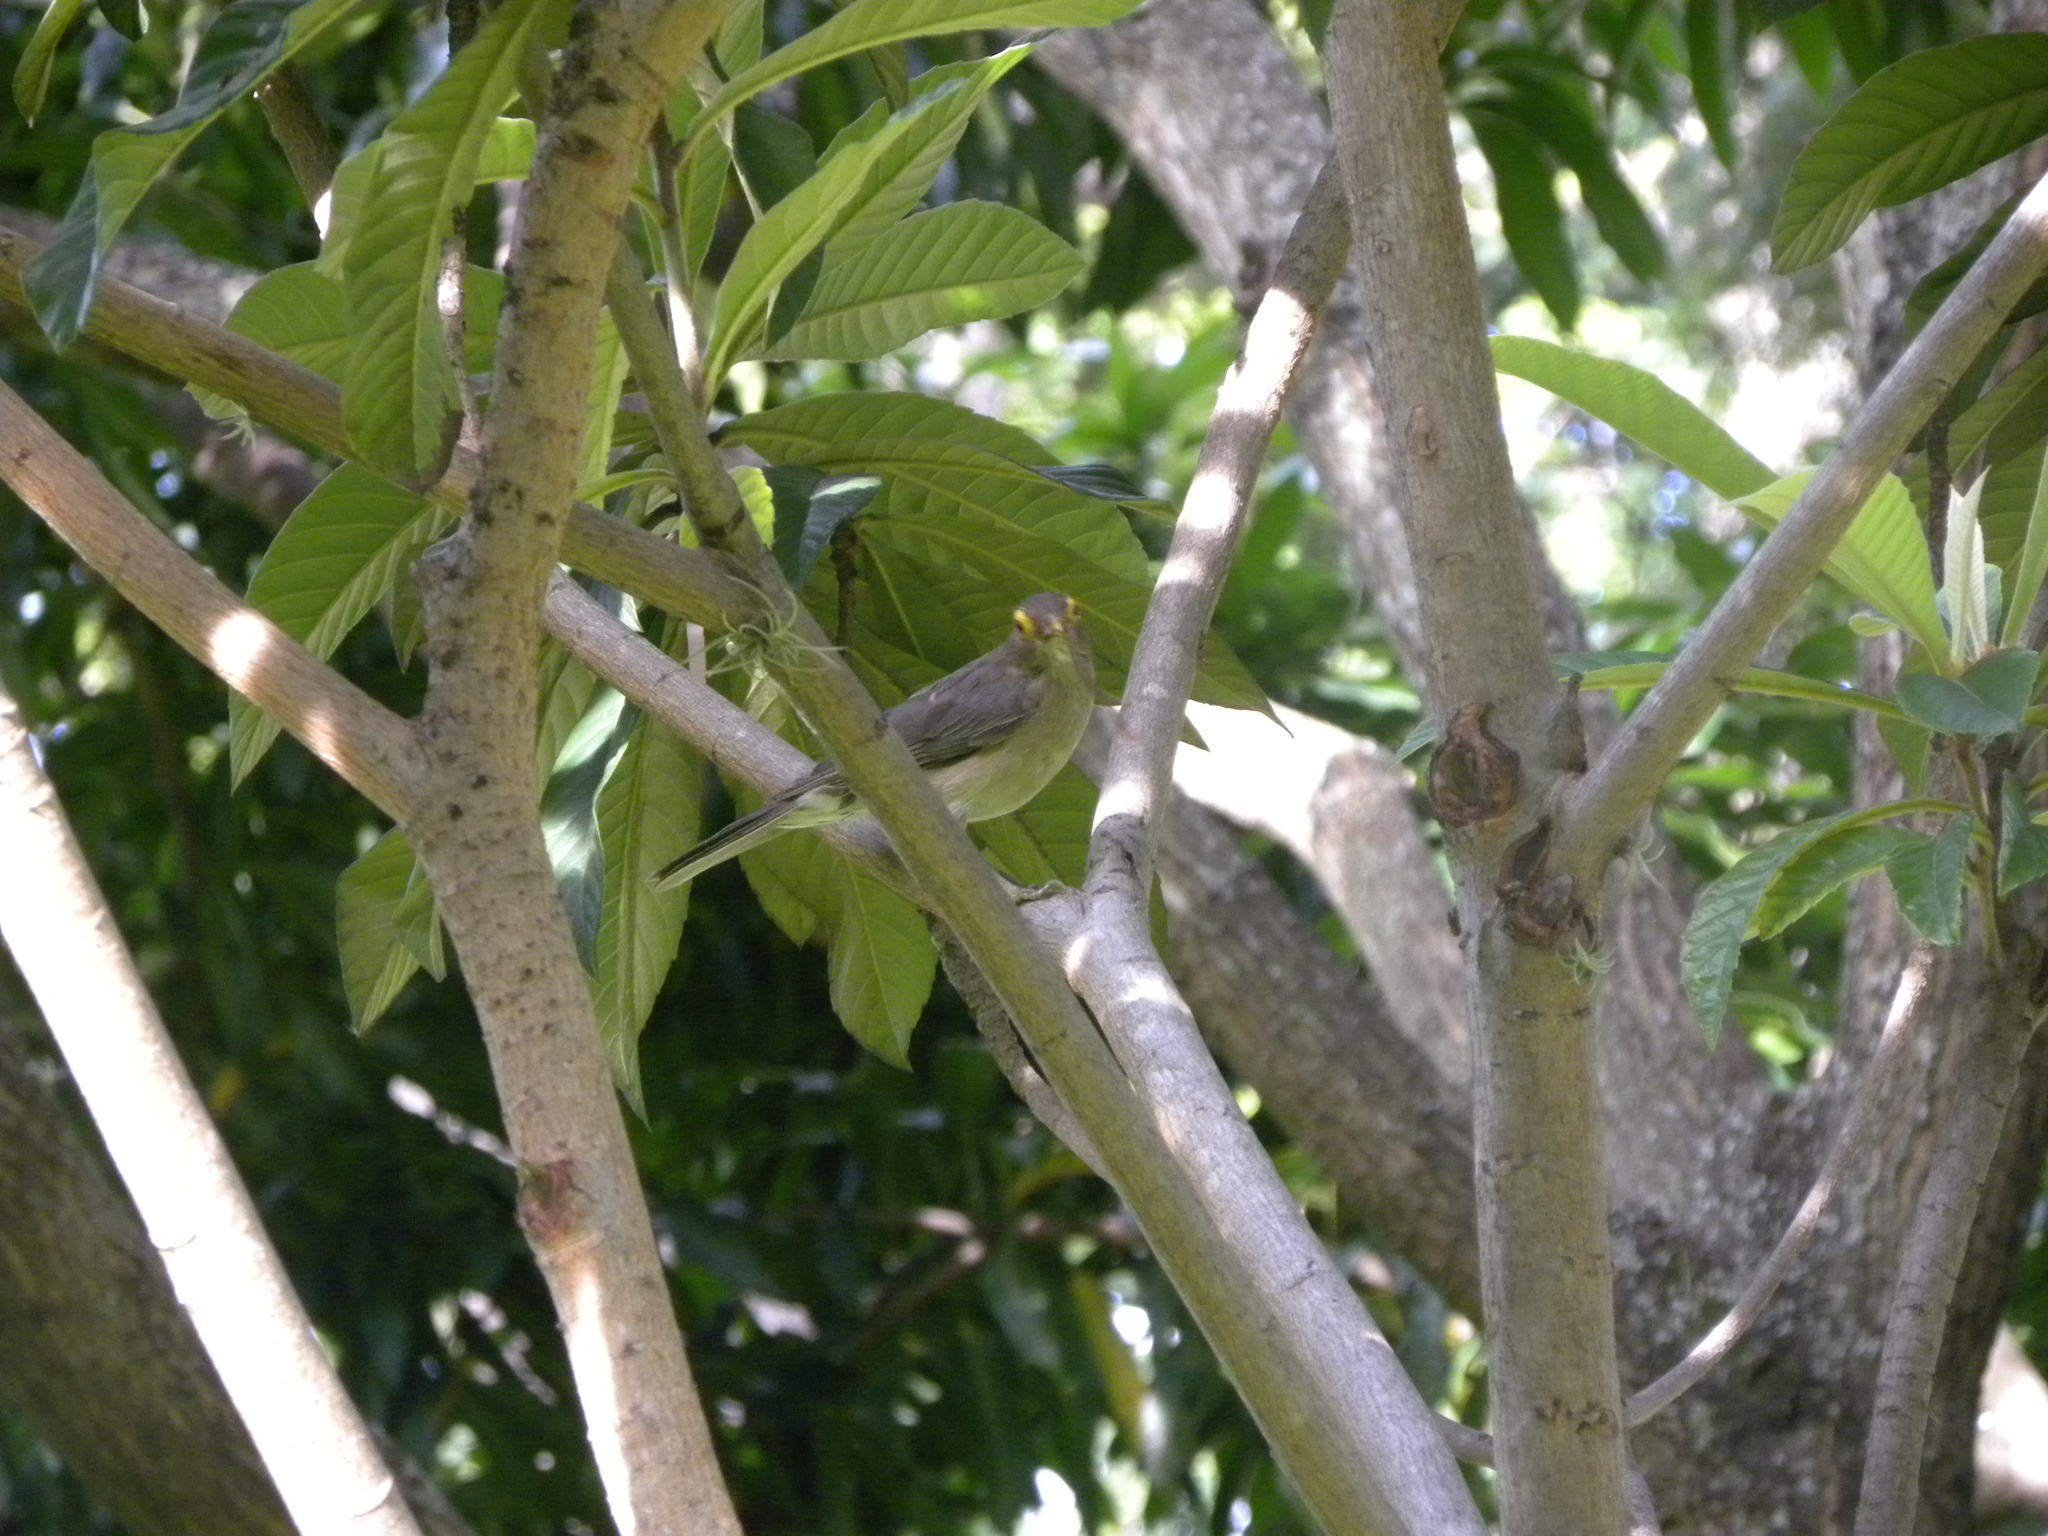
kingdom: Animalia
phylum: Chordata
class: Aves
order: Passeriformes
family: Turdidae
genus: Turdus
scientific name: Turdus nudigenis
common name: Spectacled thrush
